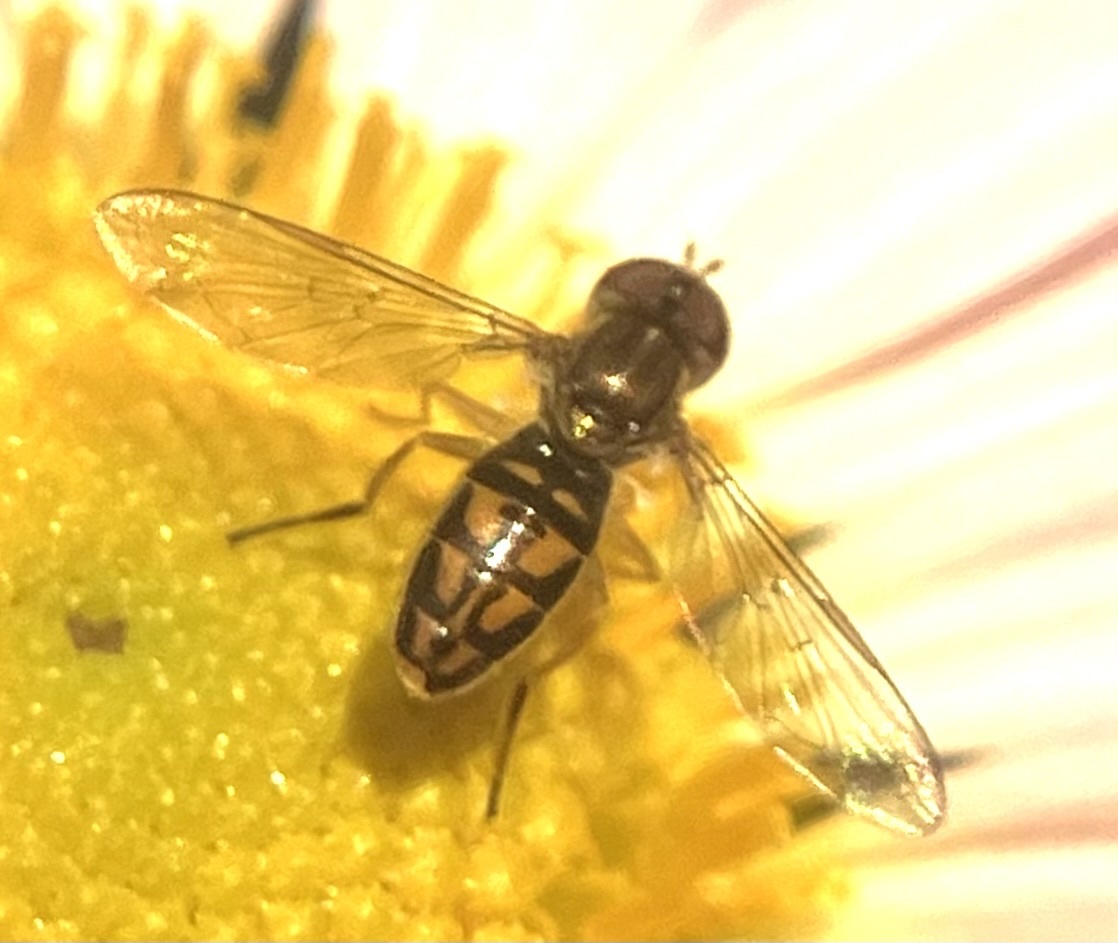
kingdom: Animalia
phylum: Arthropoda
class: Insecta
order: Diptera
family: Syrphidae
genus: Toxomerus
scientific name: Toxomerus marginatus
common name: Syrphid fly
